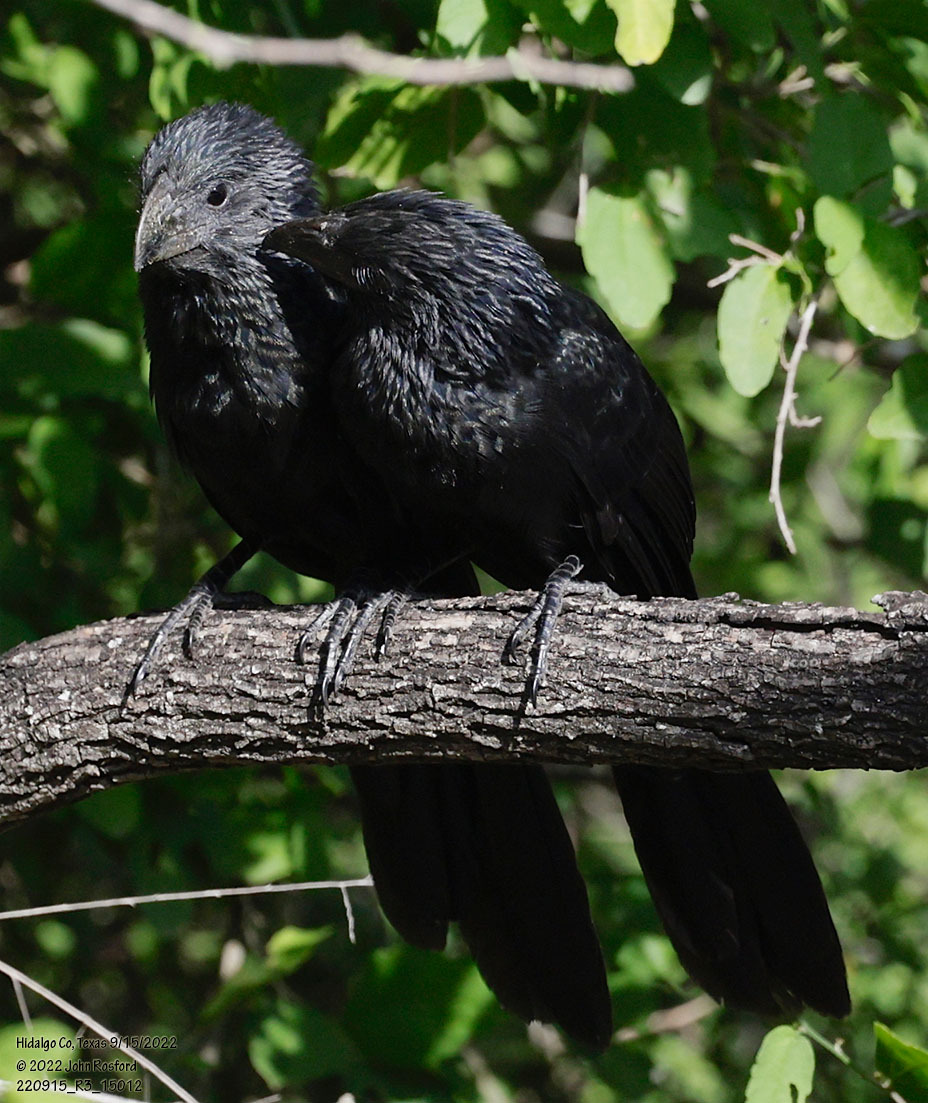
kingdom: Animalia
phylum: Chordata
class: Aves
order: Cuculiformes
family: Cuculidae
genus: Crotophaga
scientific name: Crotophaga sulcirostris
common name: Groove-billed ani
